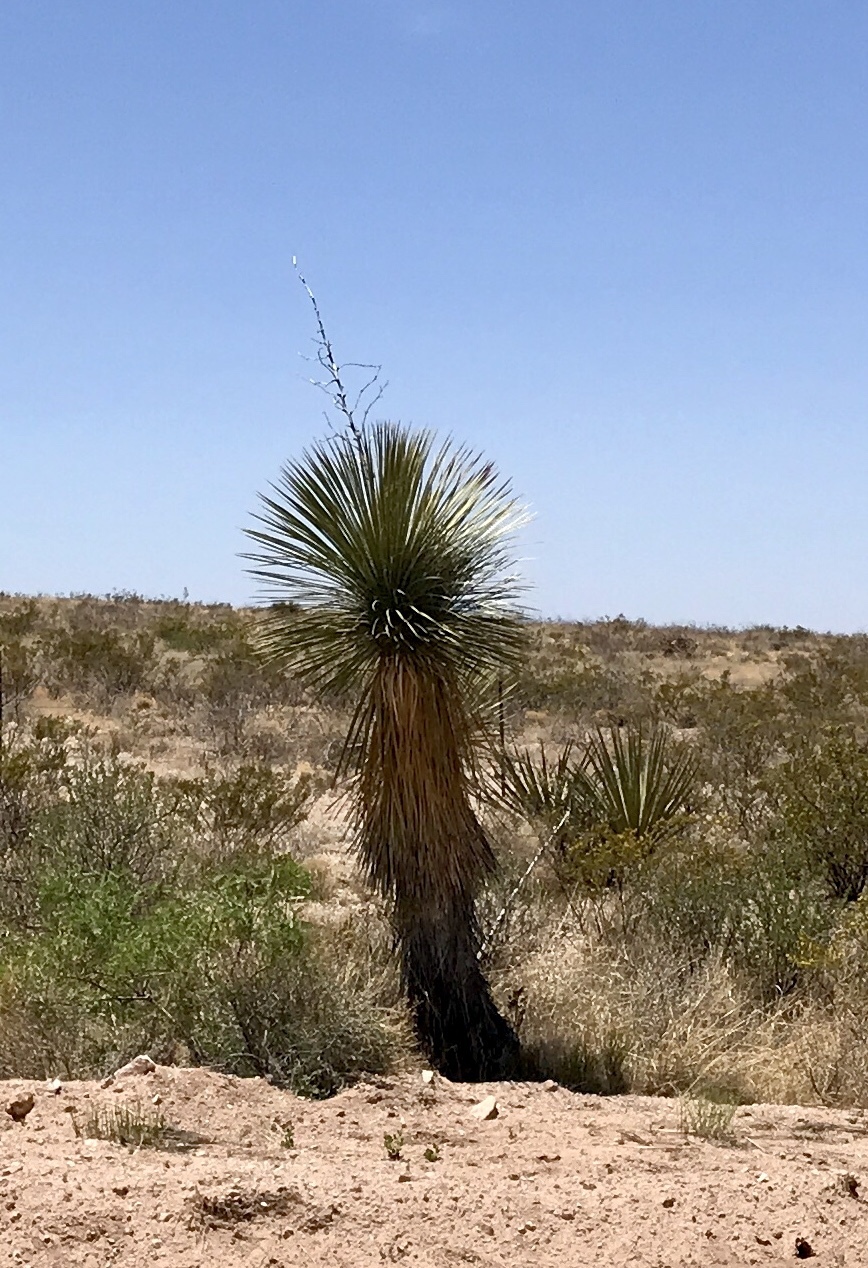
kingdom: Plantae
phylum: Tracheophyta
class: Liliopsida
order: Asparagales
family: Asparagaceae
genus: Yucca
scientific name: Yucca elata
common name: Palmella
